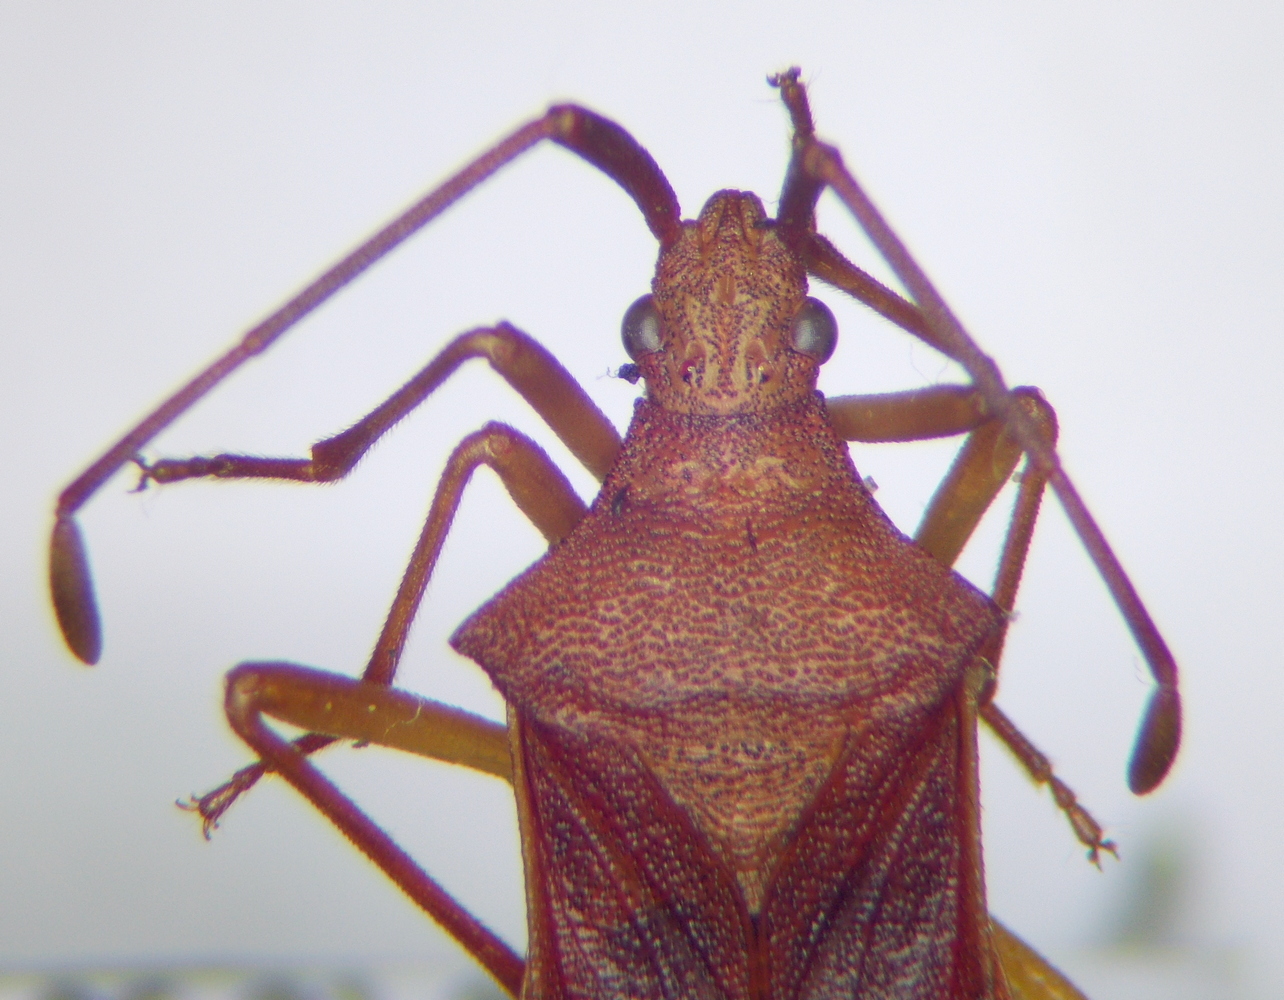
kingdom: Animalia
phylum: Arthropoda
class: Insecta
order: Hemiptera
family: Coreidae
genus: Gonocerus
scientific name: Gonocerus acuteangulatus
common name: Box bug
